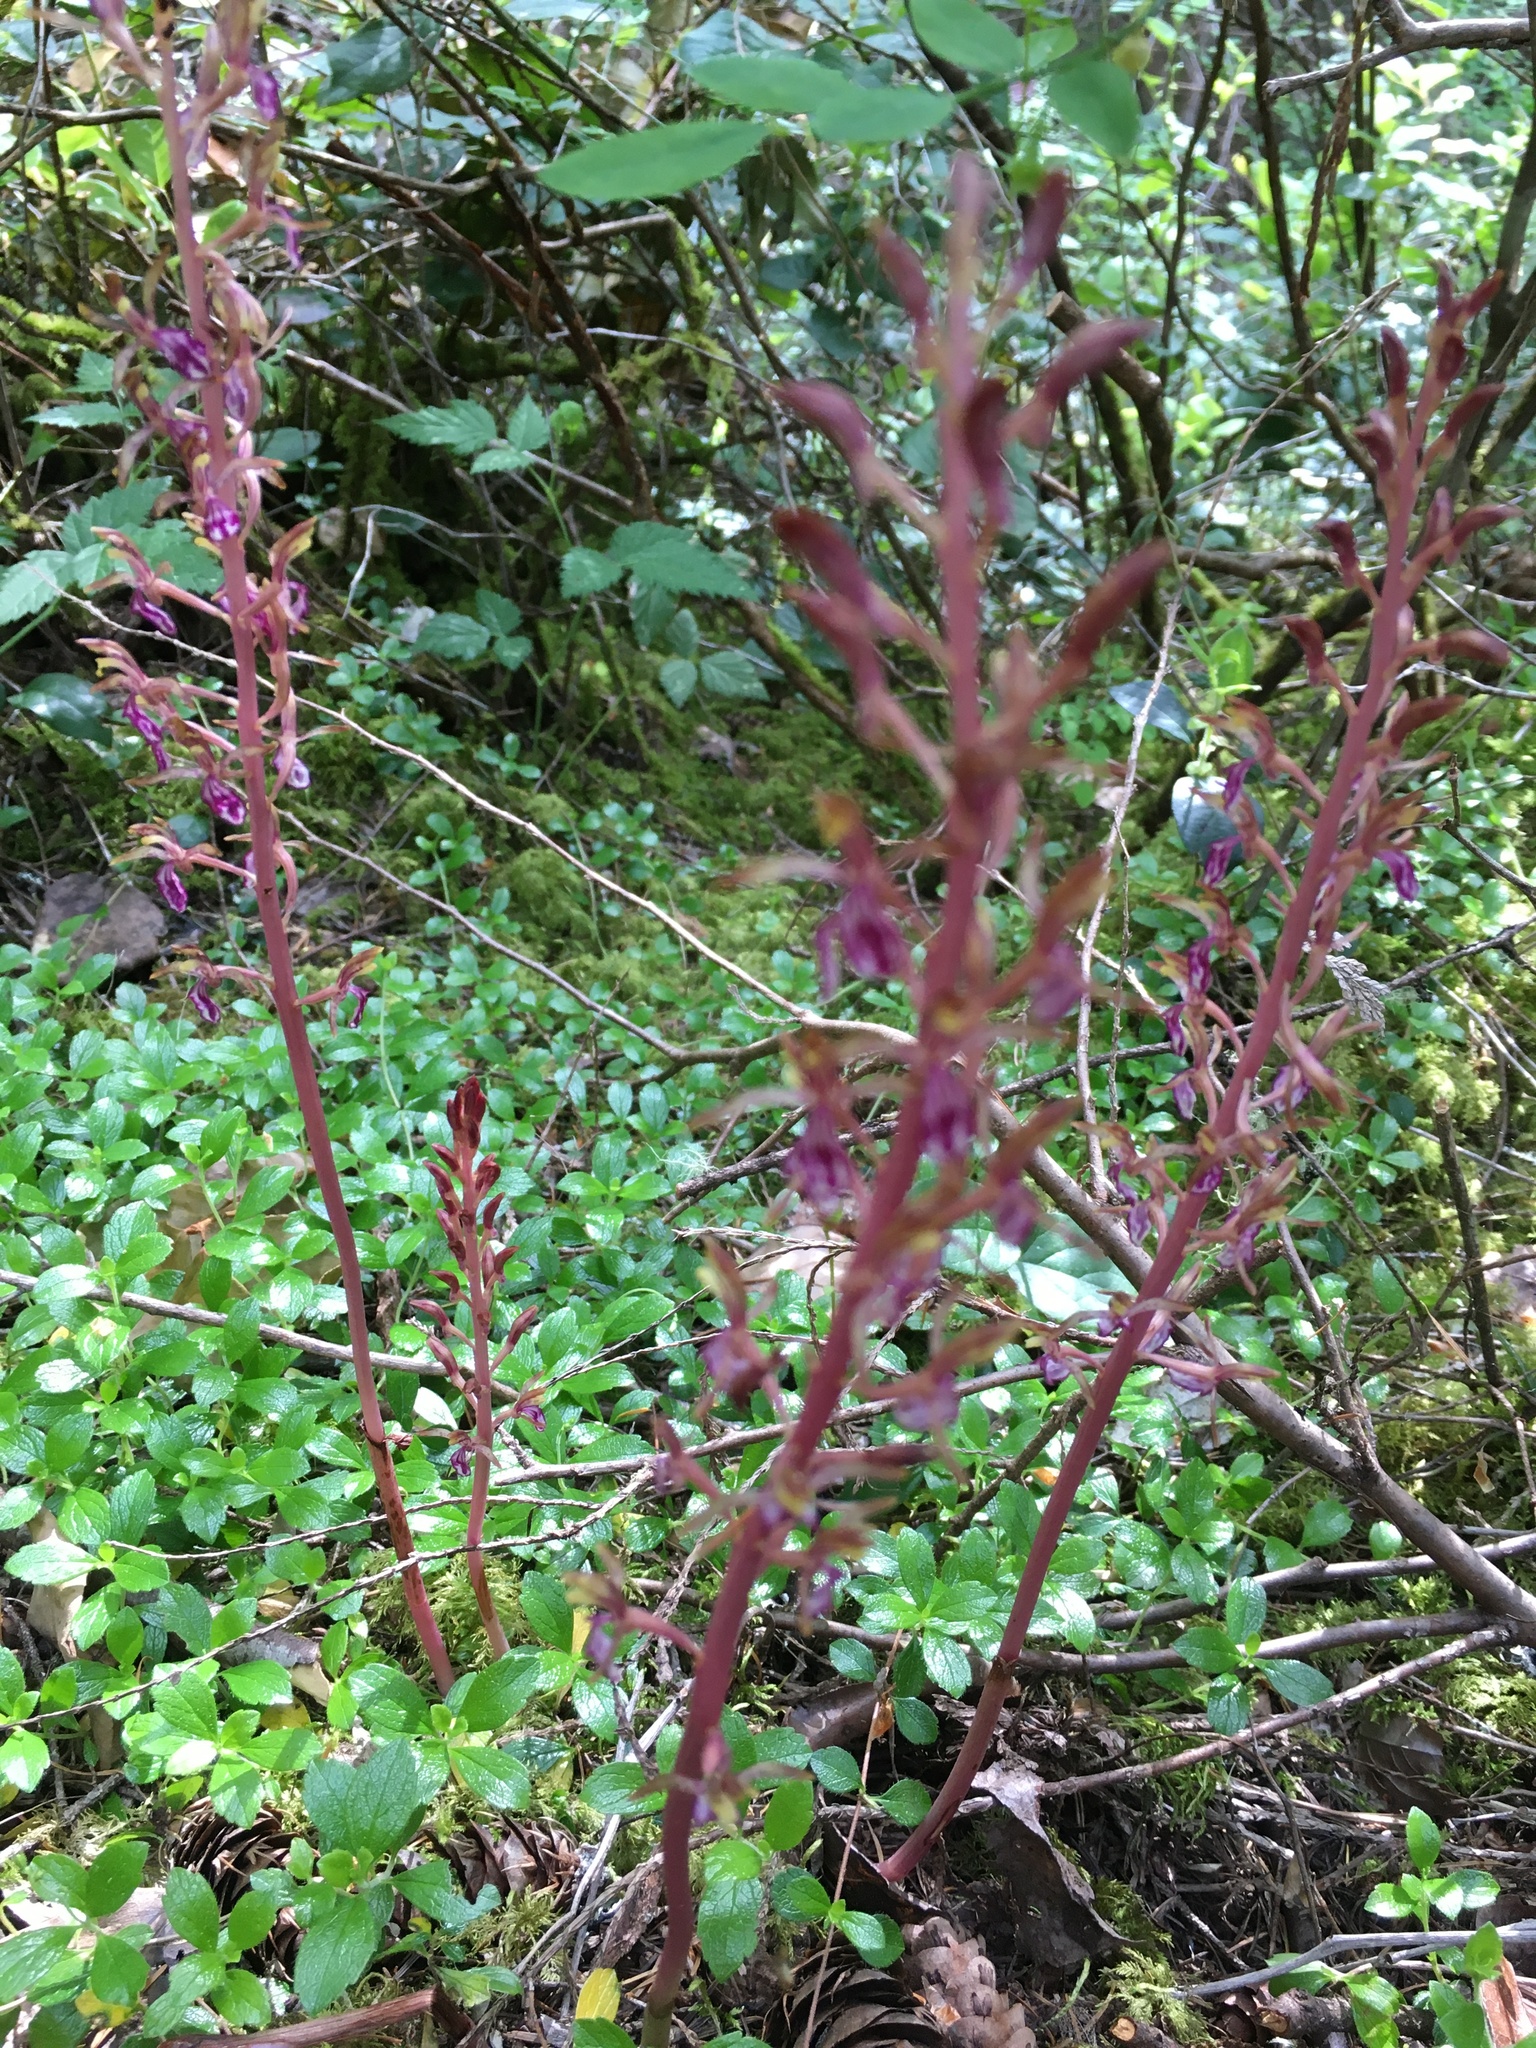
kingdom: Plantae
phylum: Tracheophyta
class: Liliopsida
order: Asparagales
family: Orchidaceae
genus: Corallorhiza
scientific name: Corallorhiza mertensiana
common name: Pacific coralroot
